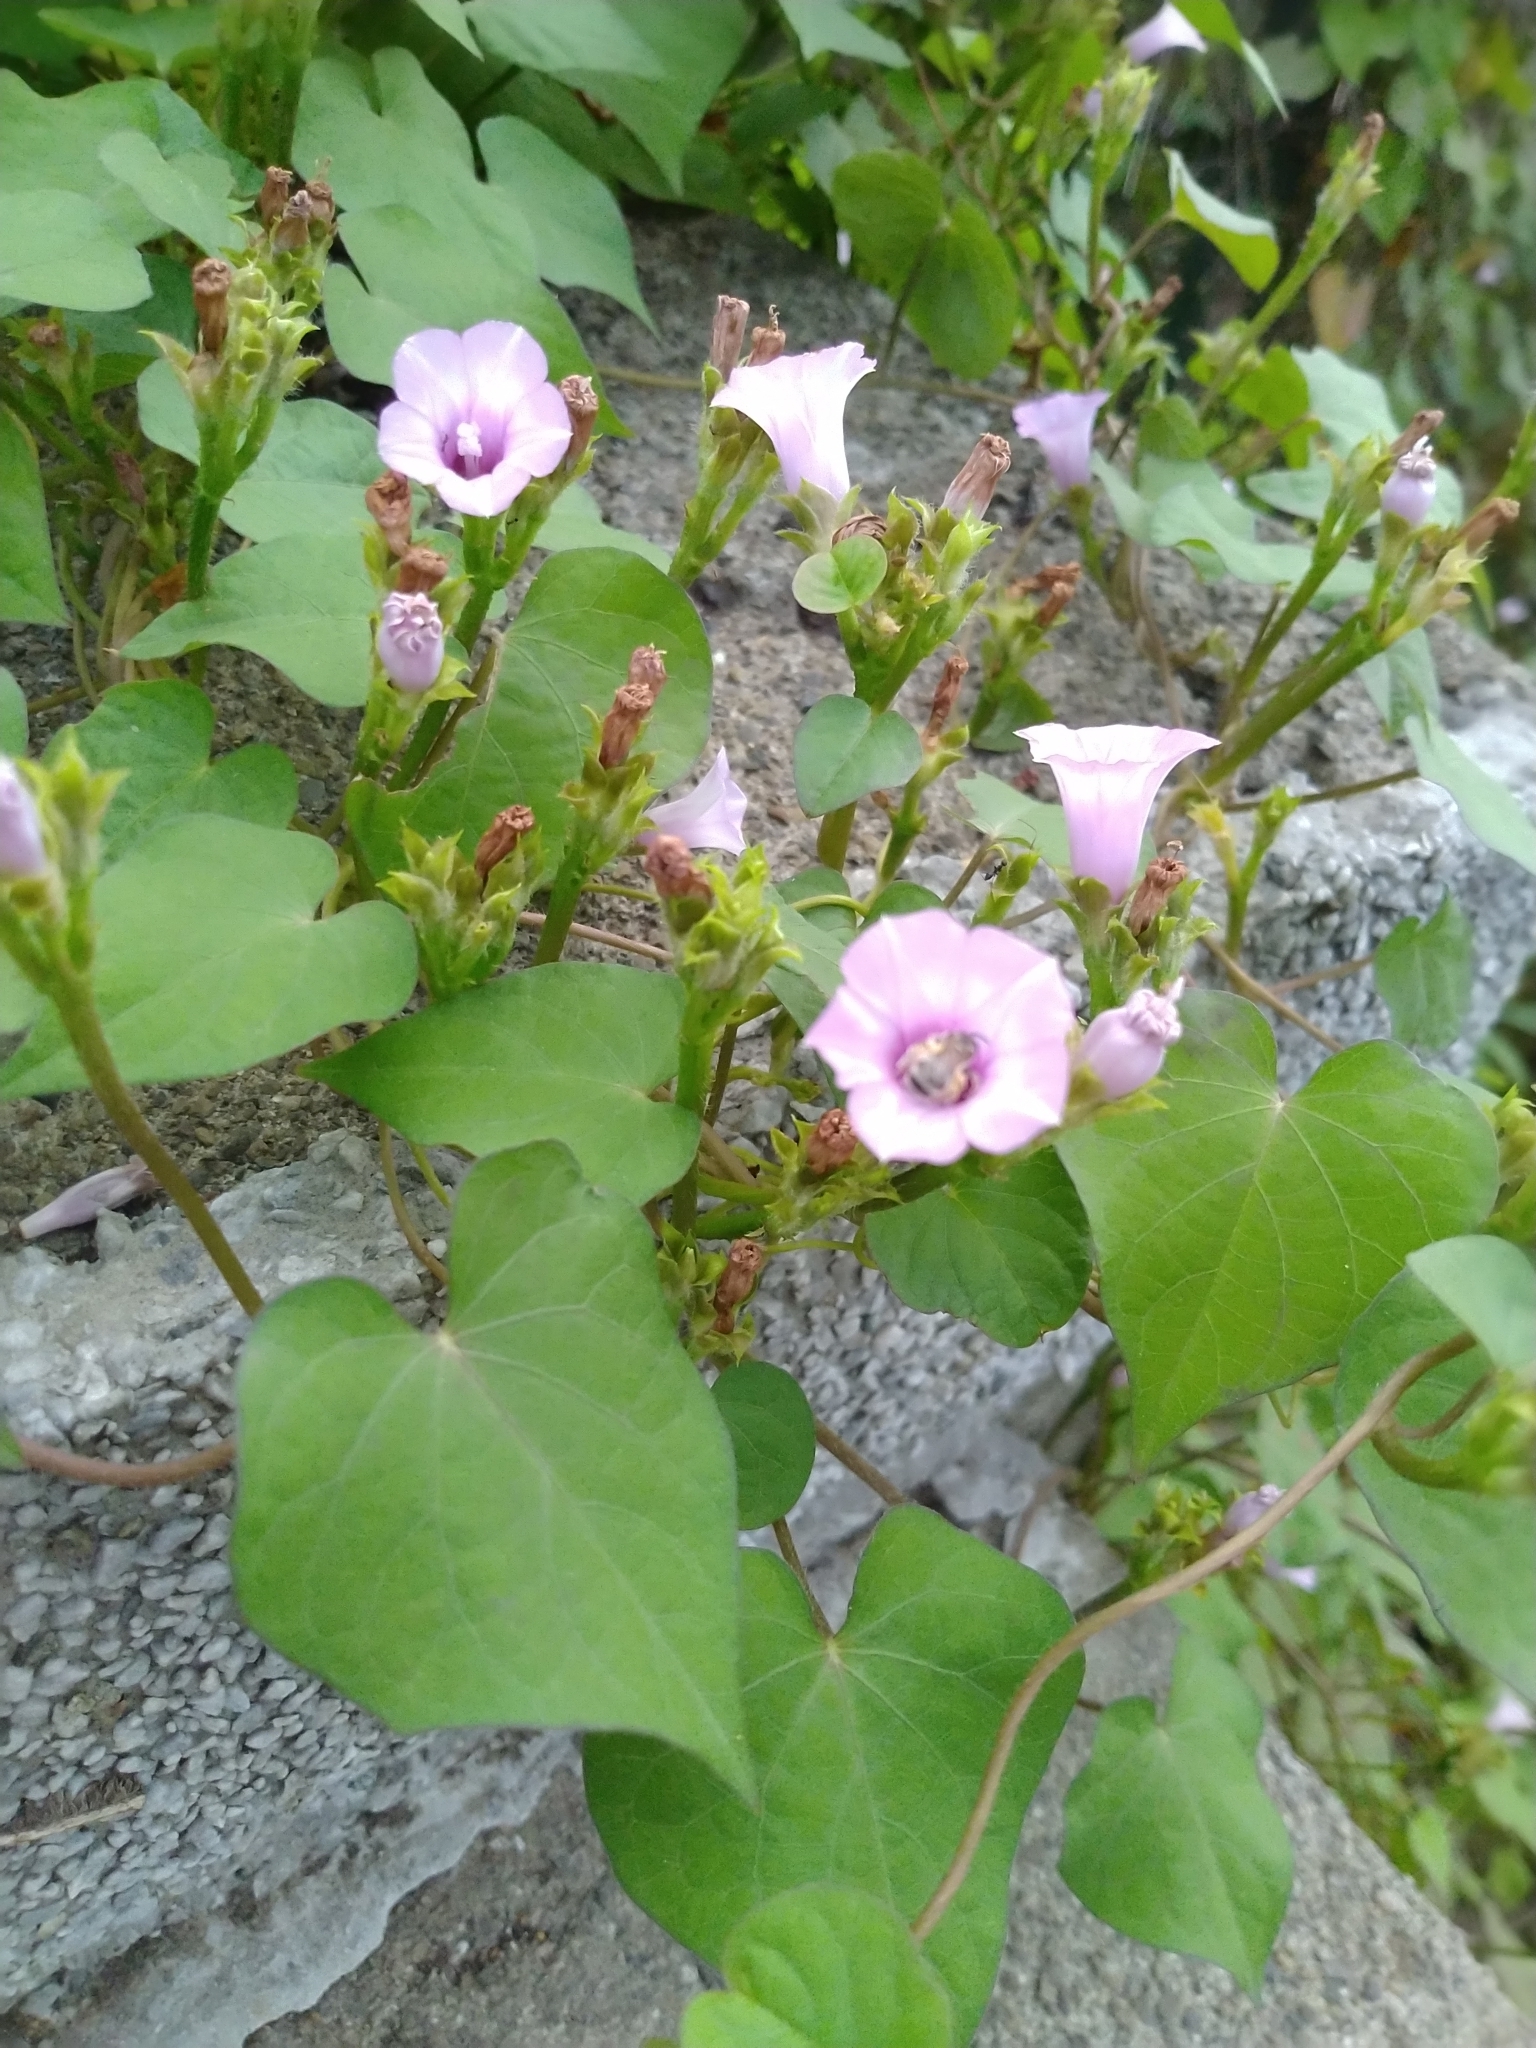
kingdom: Plantae
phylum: Tracheophyta
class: Magnoliopsida
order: Solanales
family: Convolvulaceae
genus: Ipomoea
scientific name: Ipomoea triloba
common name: Little-bell
